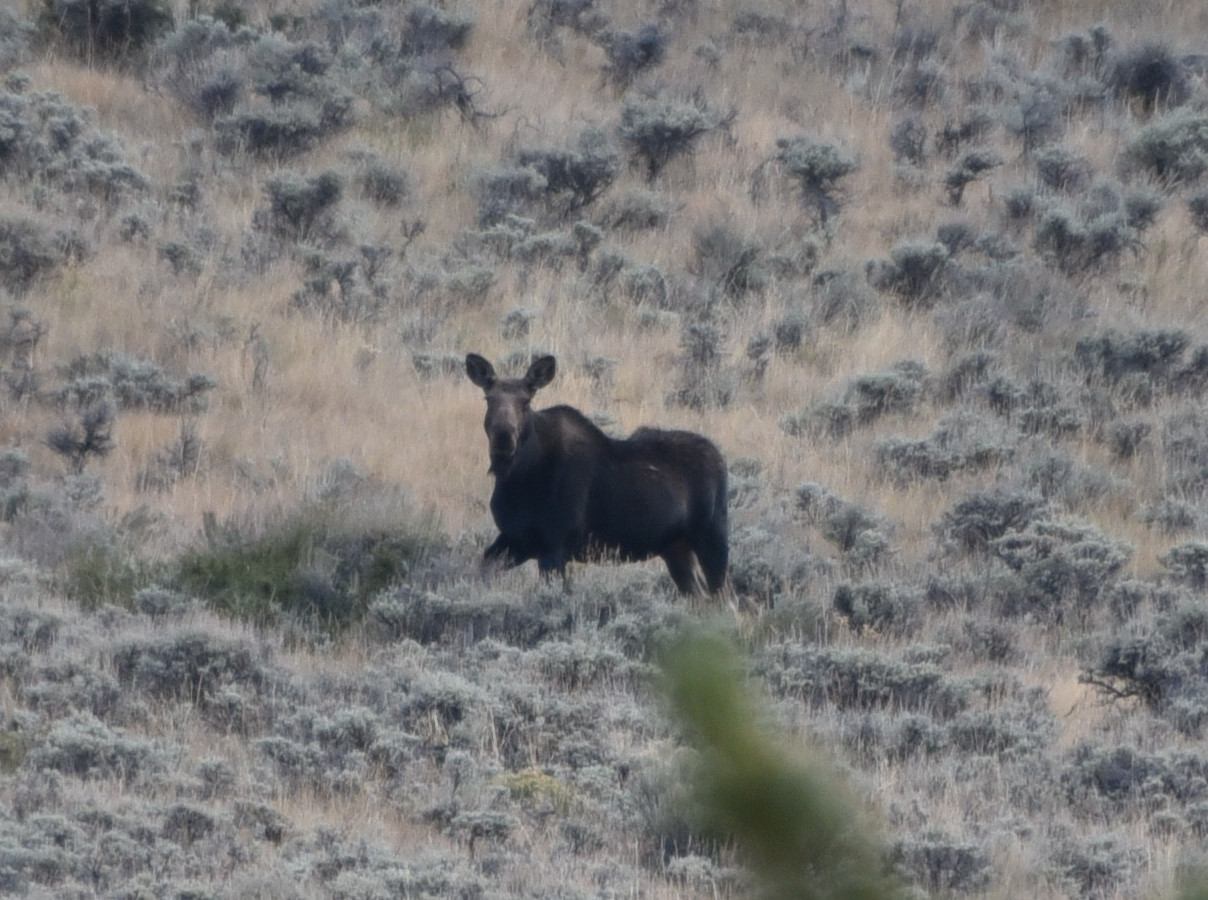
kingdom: Animalia
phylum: Chordata
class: Mammalia
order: Artiodactyla
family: Cervidae
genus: Alces
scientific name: Alces alces
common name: Moose
